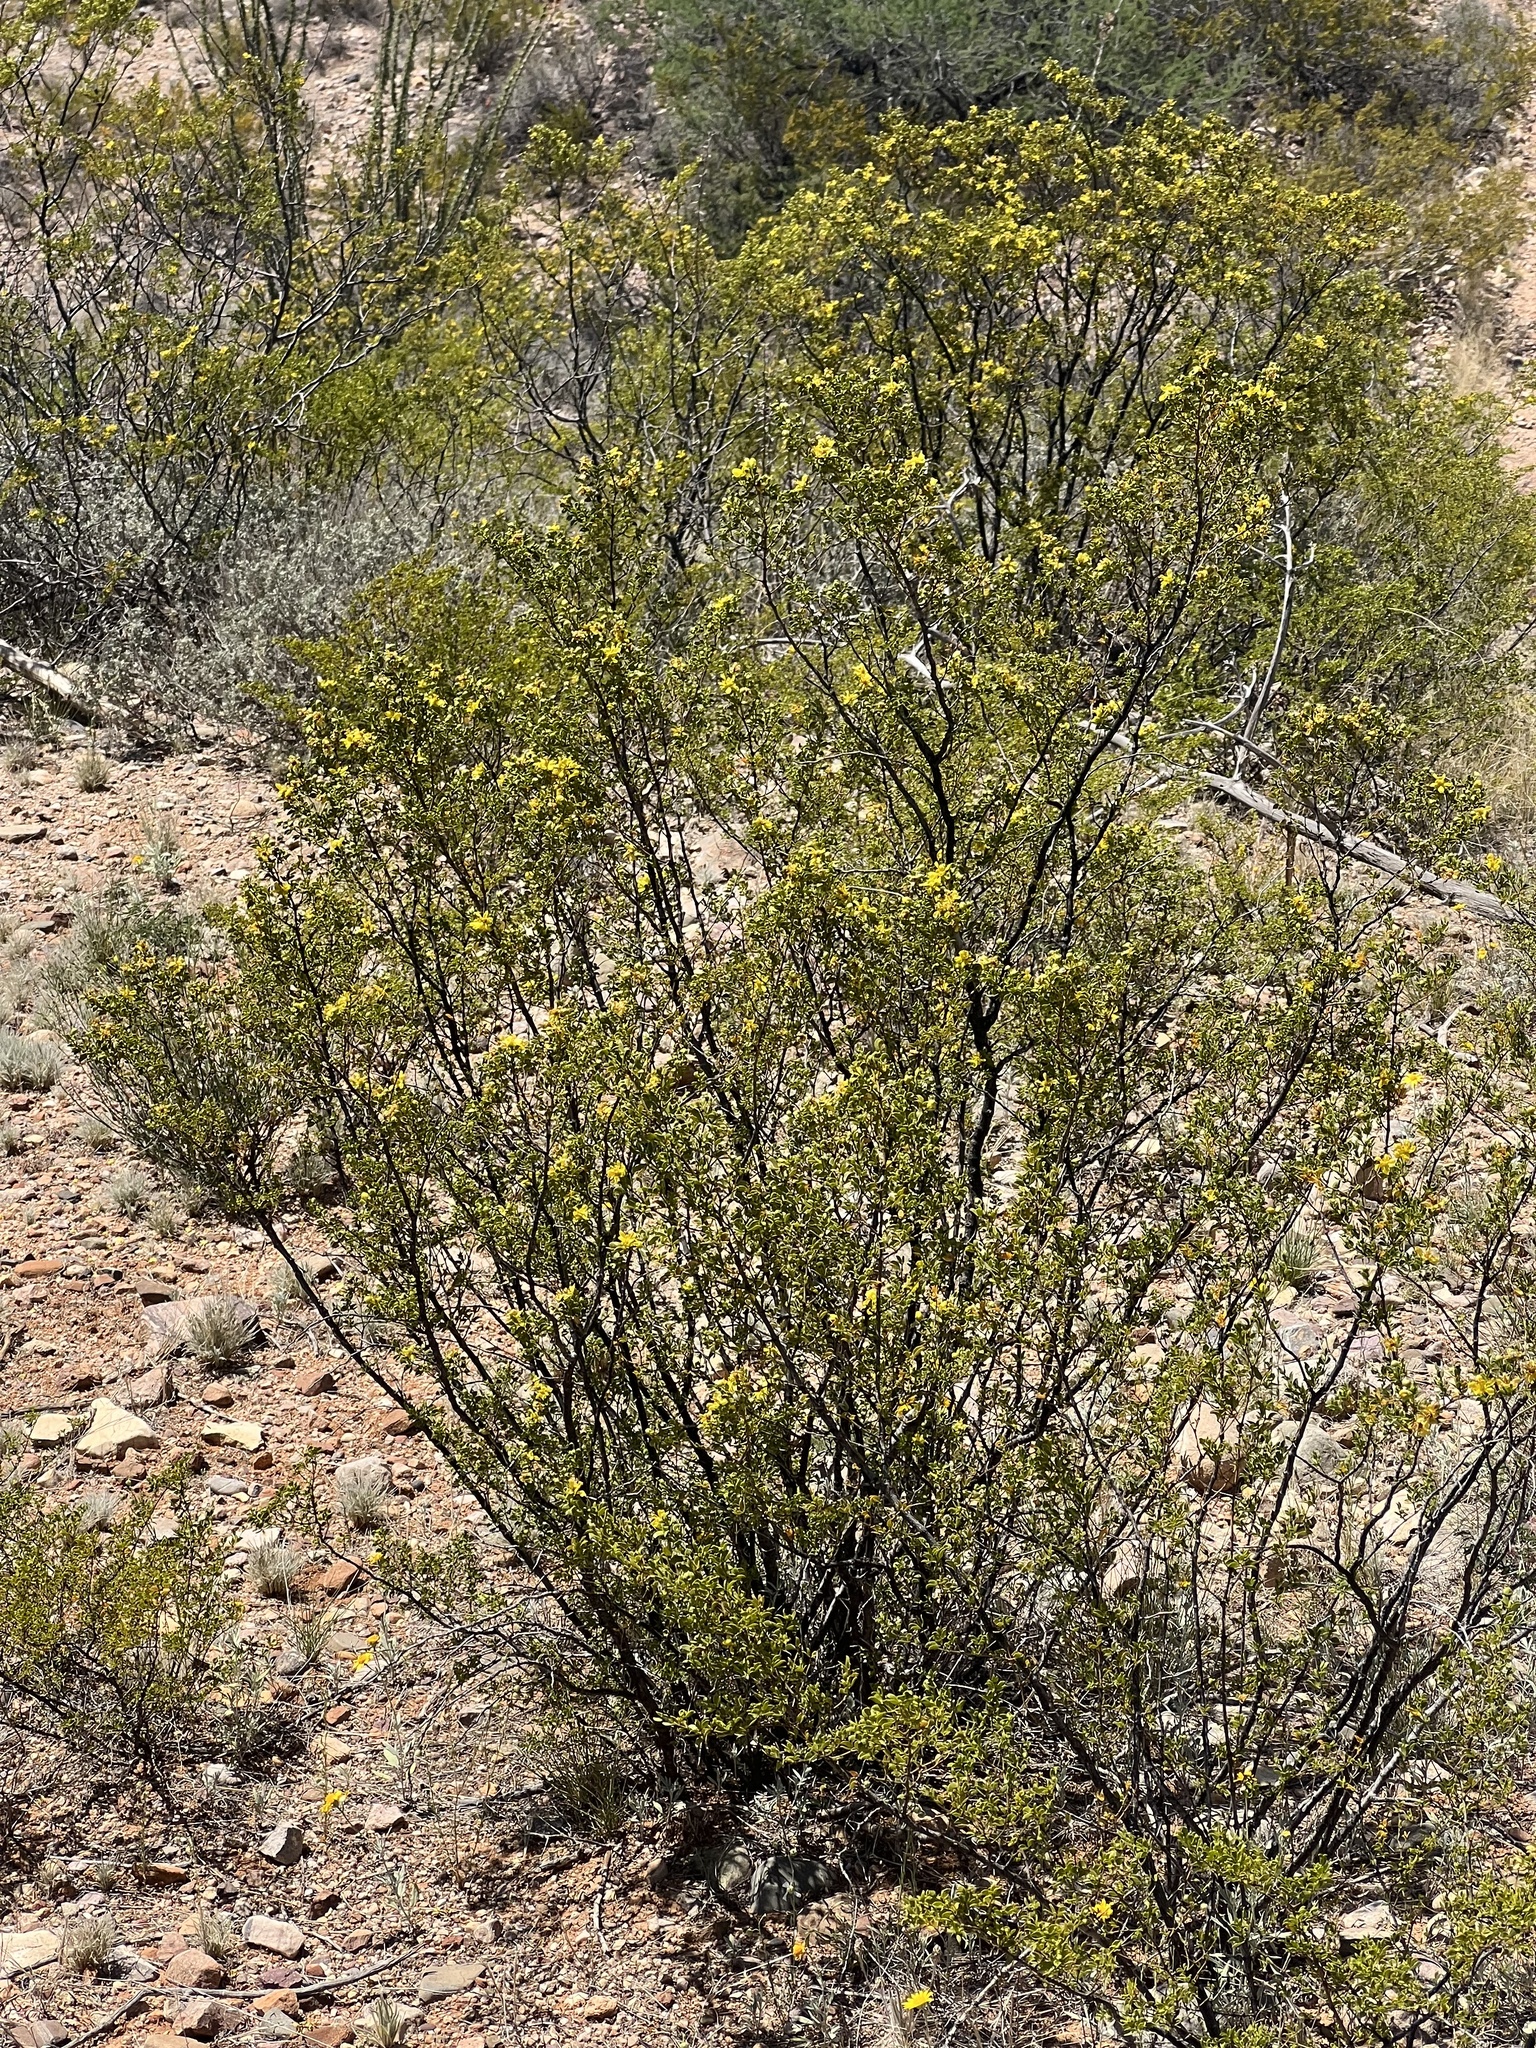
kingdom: Plantae
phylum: Tracheophyta
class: Magnoliopsida
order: Zygophyllales
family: Zygophyllaceae
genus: Larrea
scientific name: Larrea tridentata
